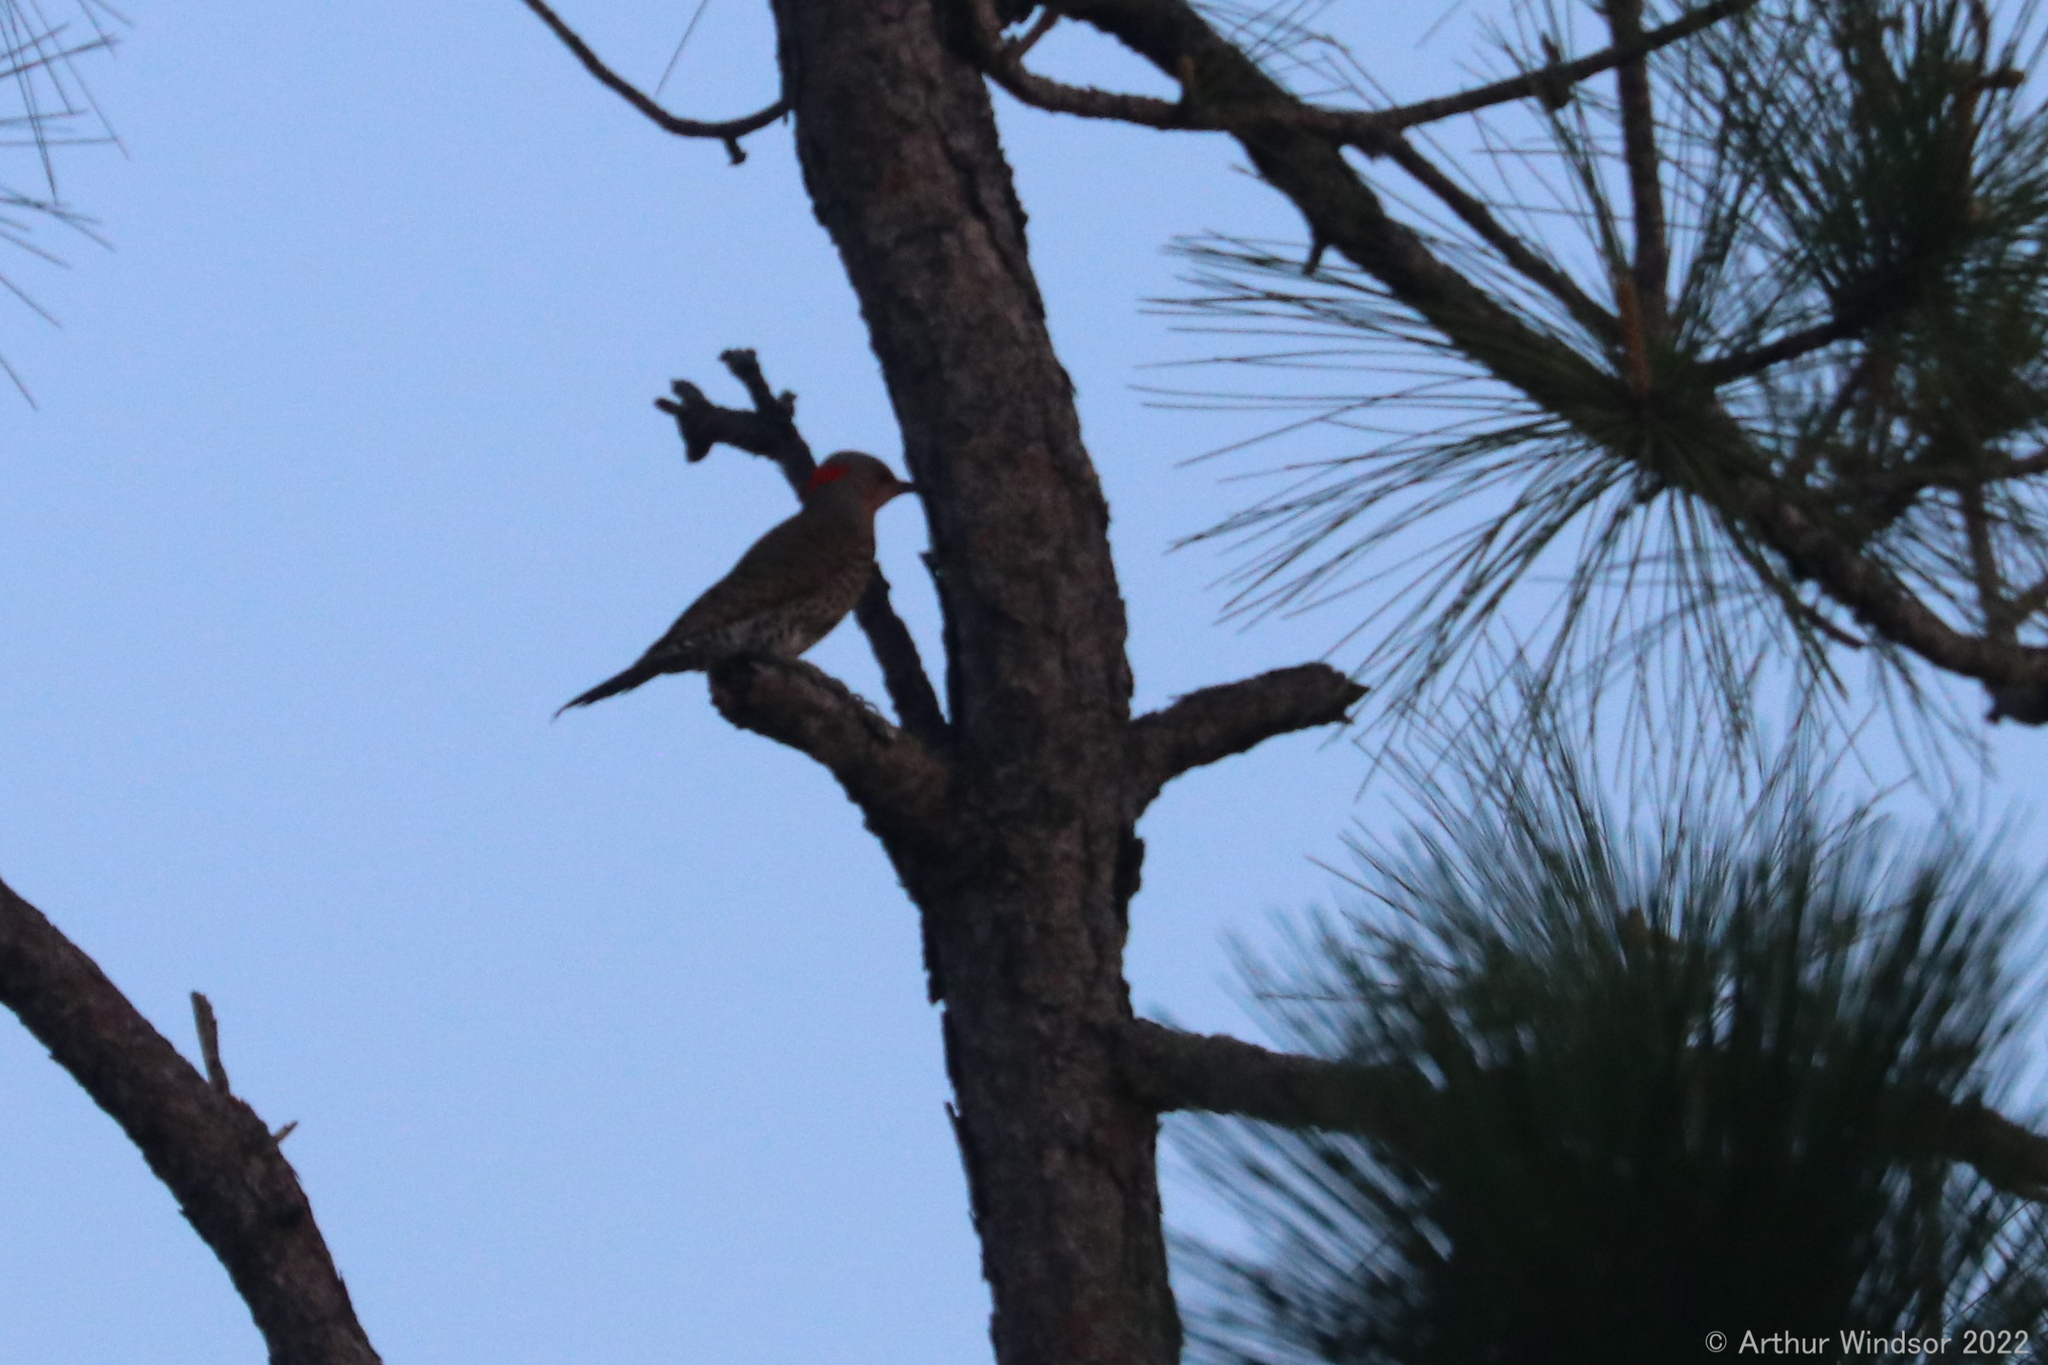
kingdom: Animalia
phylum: Chordata
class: Aves
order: Piciformes
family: Picidae
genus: Colaptes
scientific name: Colaptes auratus
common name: Northern flicker
